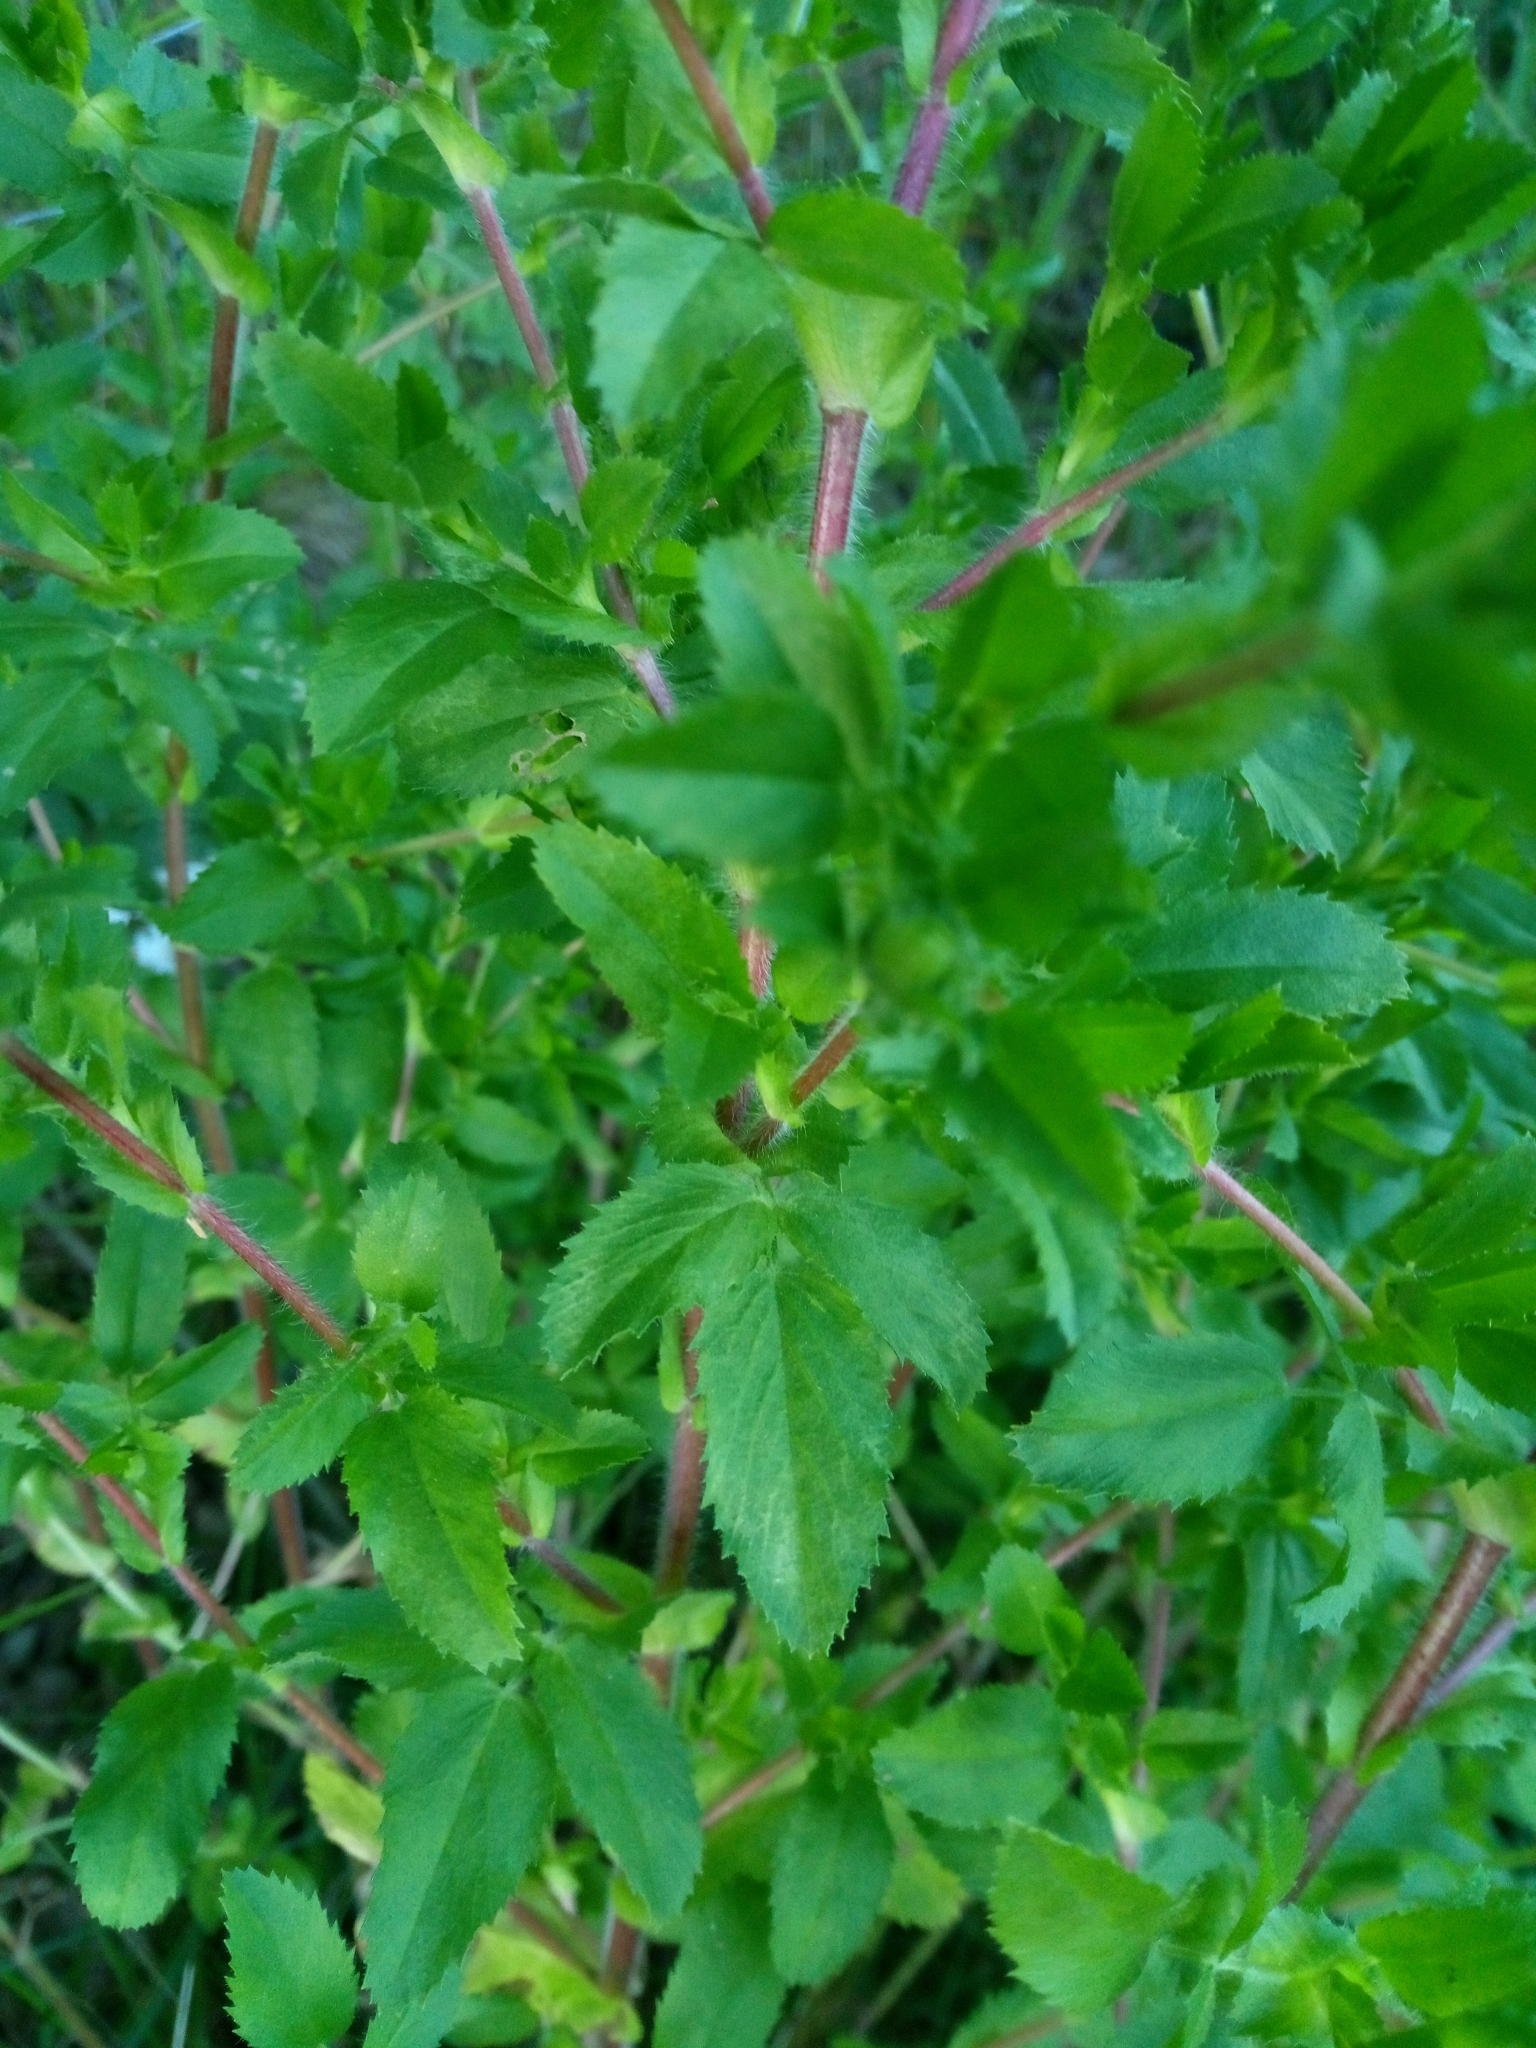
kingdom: Plantae
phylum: Tracheophyta
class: Magnoliopsida
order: Fabales
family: Fabaceae
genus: Ononis
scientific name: Ononis arvensis
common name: Field restharrow
